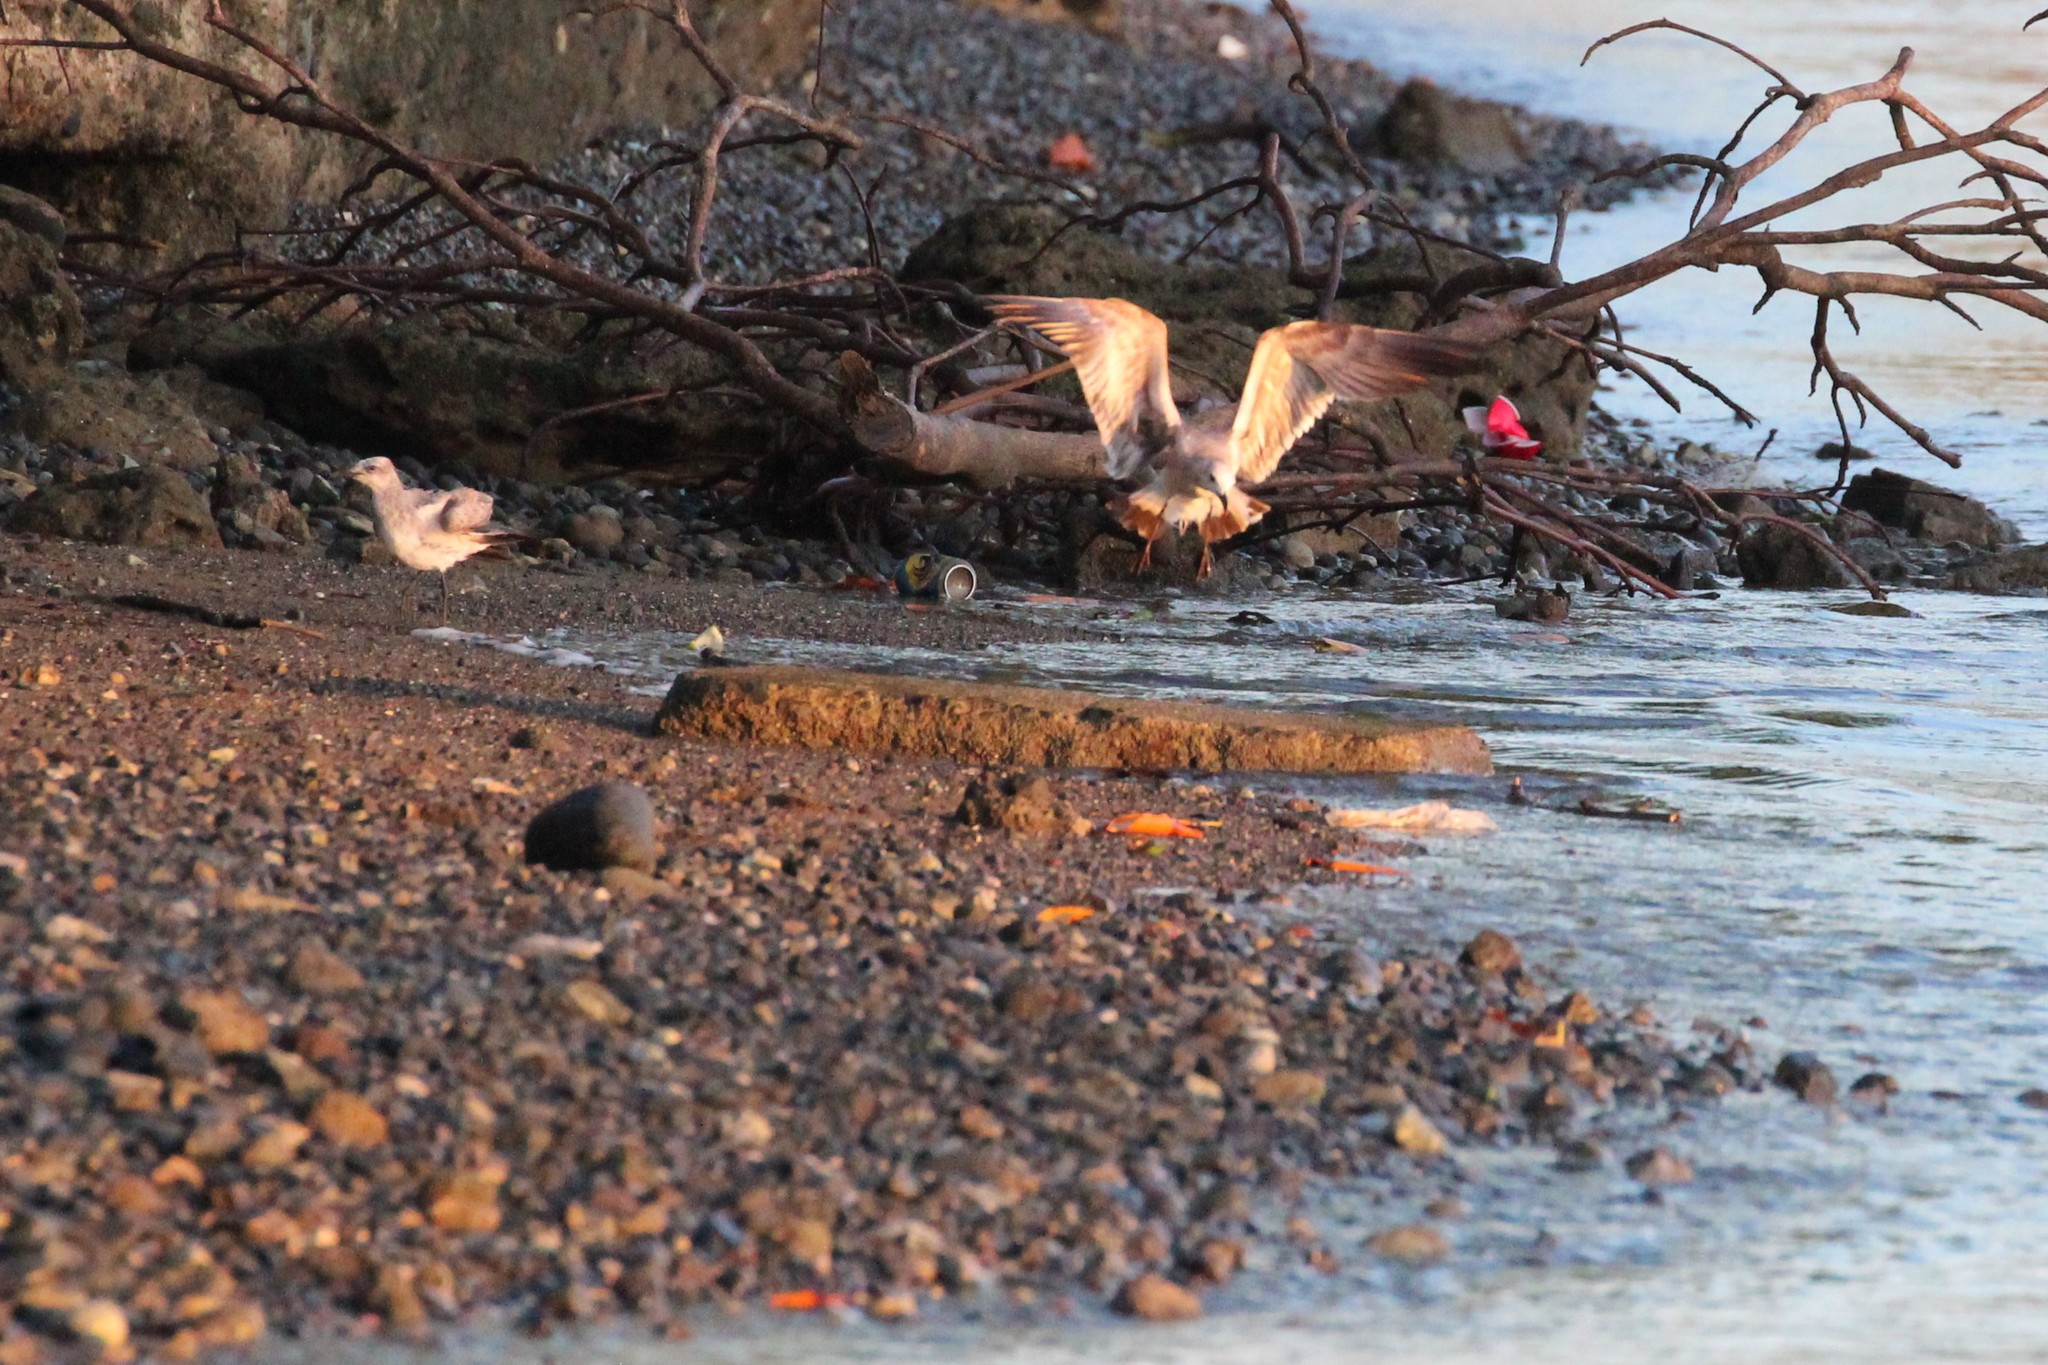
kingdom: Animalia
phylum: Chordata
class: Aves
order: Charadriiformes
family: Laridae
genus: Leucophaeus
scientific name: Leucophaeus atricilla
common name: Laughing gull
